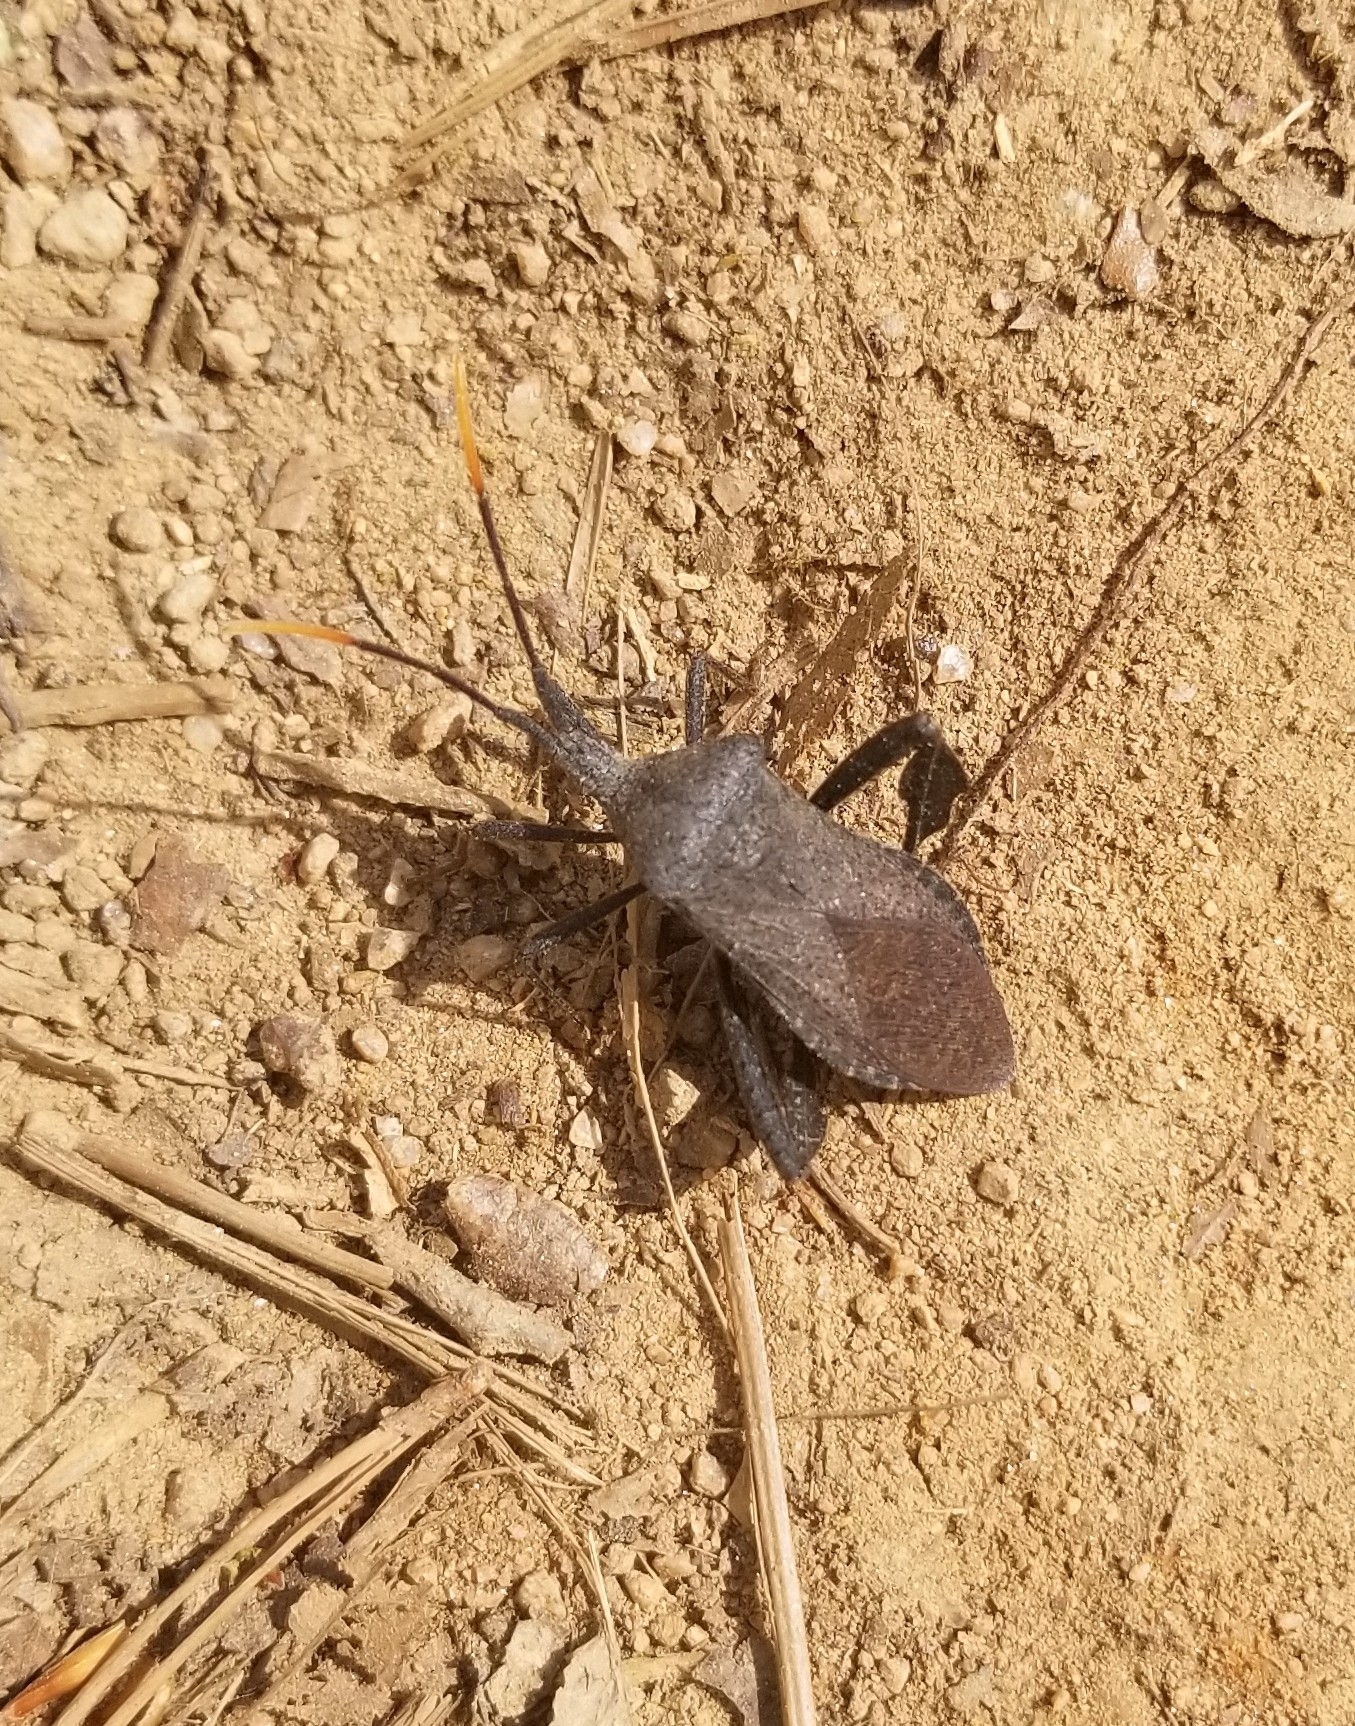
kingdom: Animalia
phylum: Arthropoda
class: Insecta
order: Hemiptera
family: Coreidae
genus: Acanthocephala
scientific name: Acanthocephala terminalis
